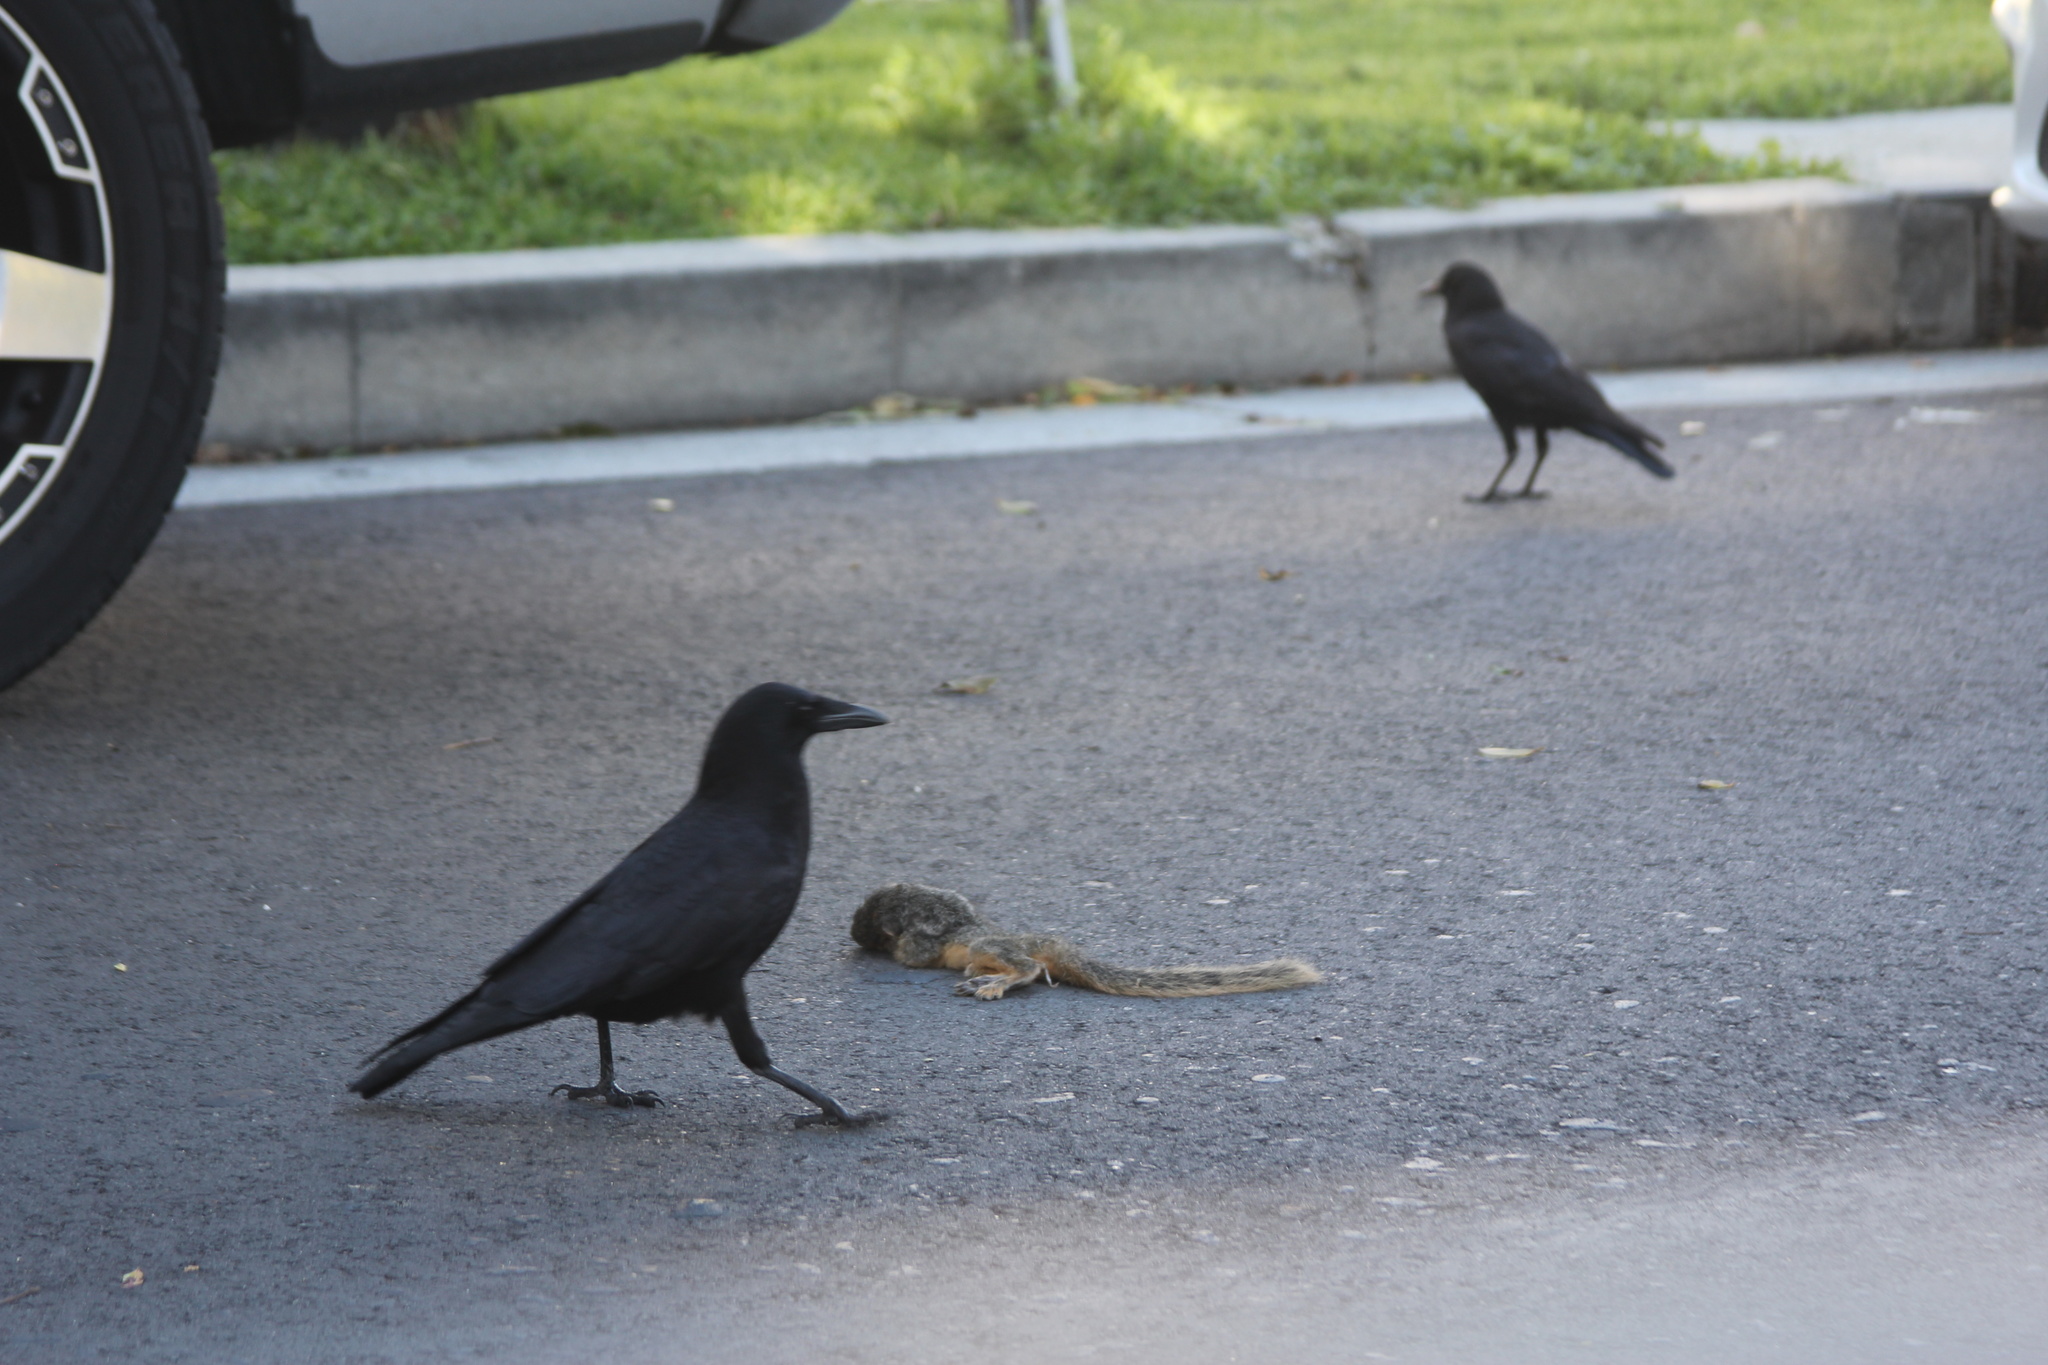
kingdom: Animalia
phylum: Chordata
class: Aves
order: Passeriformes
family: Corvidae
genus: Corvus
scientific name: Corvus brachyrhynchos
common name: American crow
